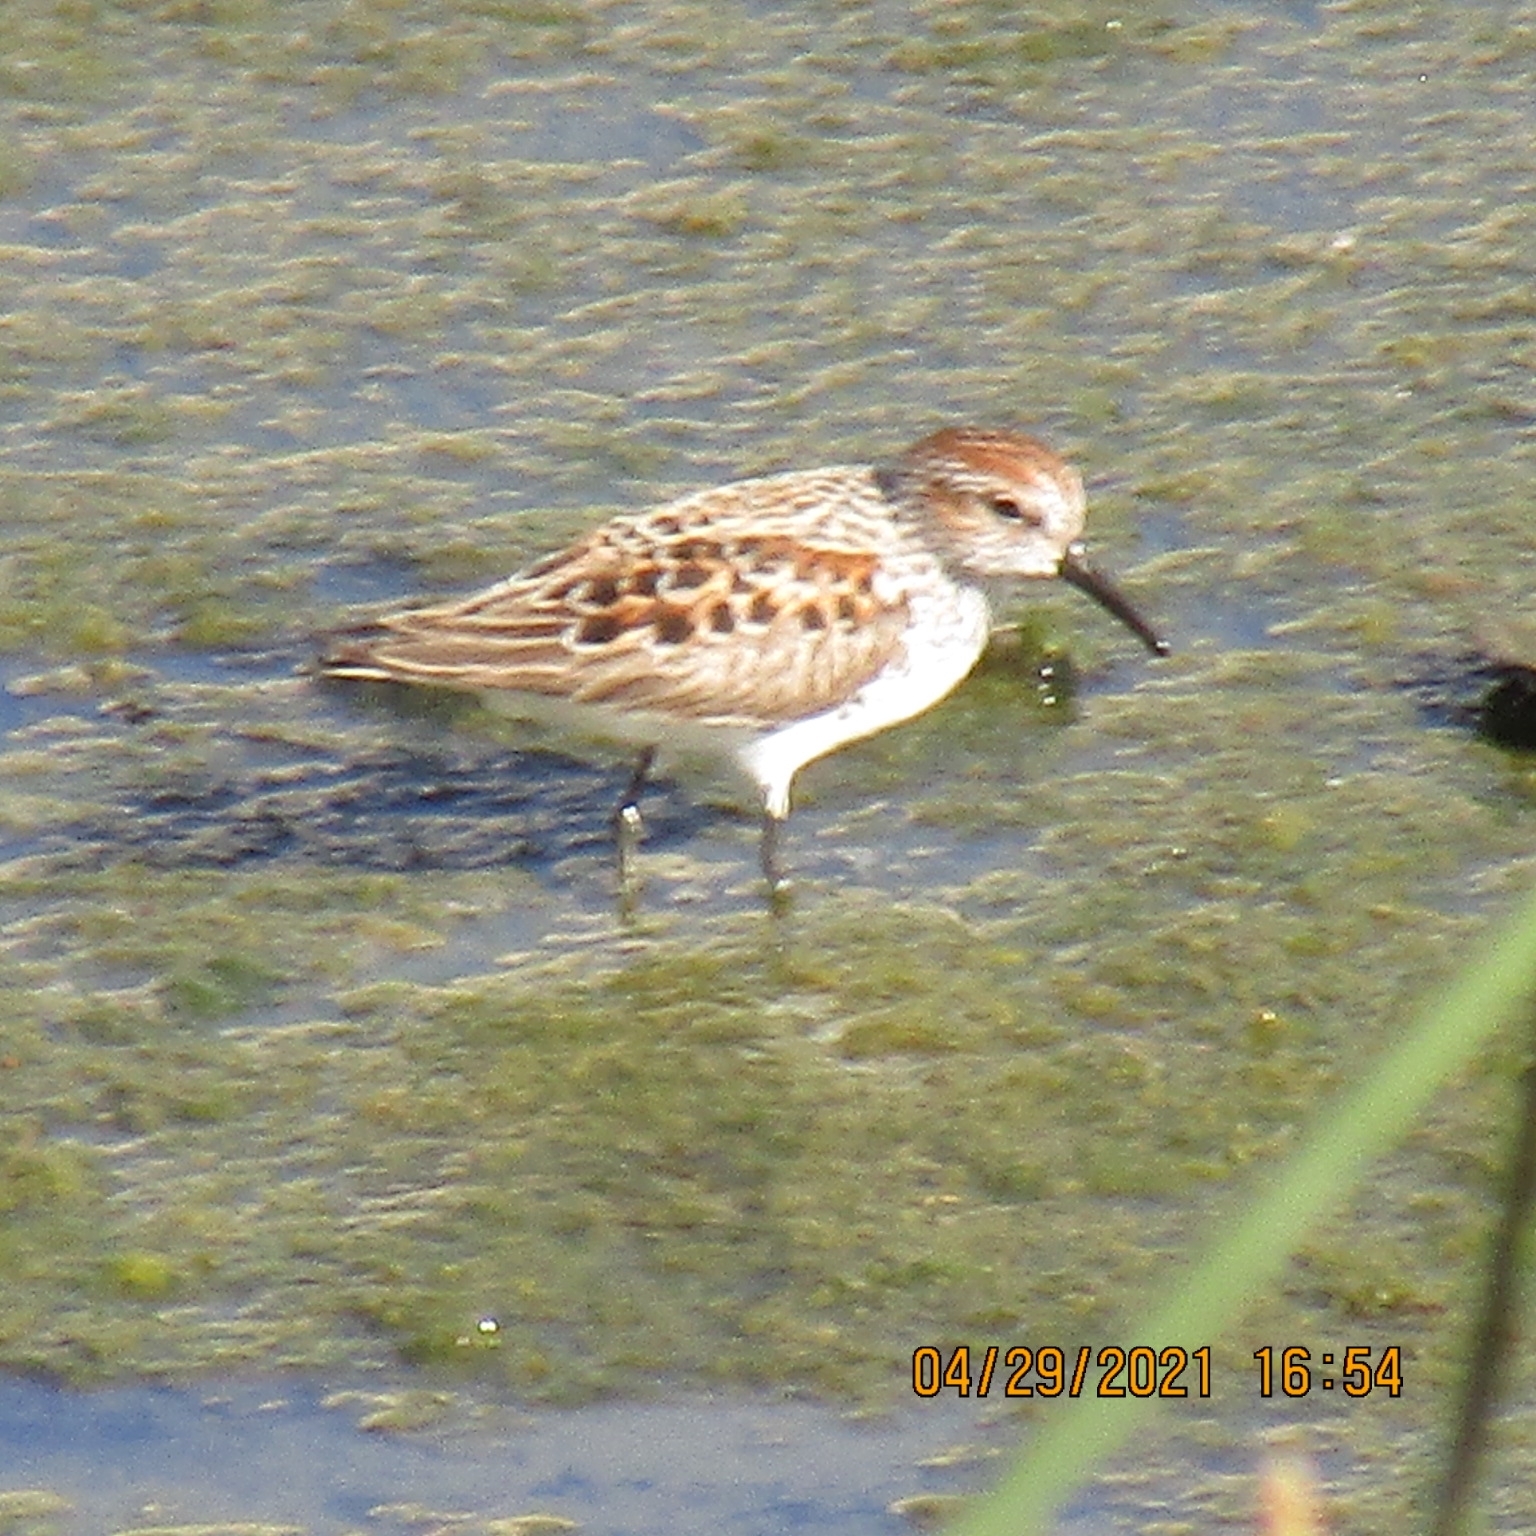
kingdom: Animalia
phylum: Chordata
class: Aves
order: Charadriiformes
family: Scolopacidae
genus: Calidris
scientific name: Calidris mauri
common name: Western sandpiper
